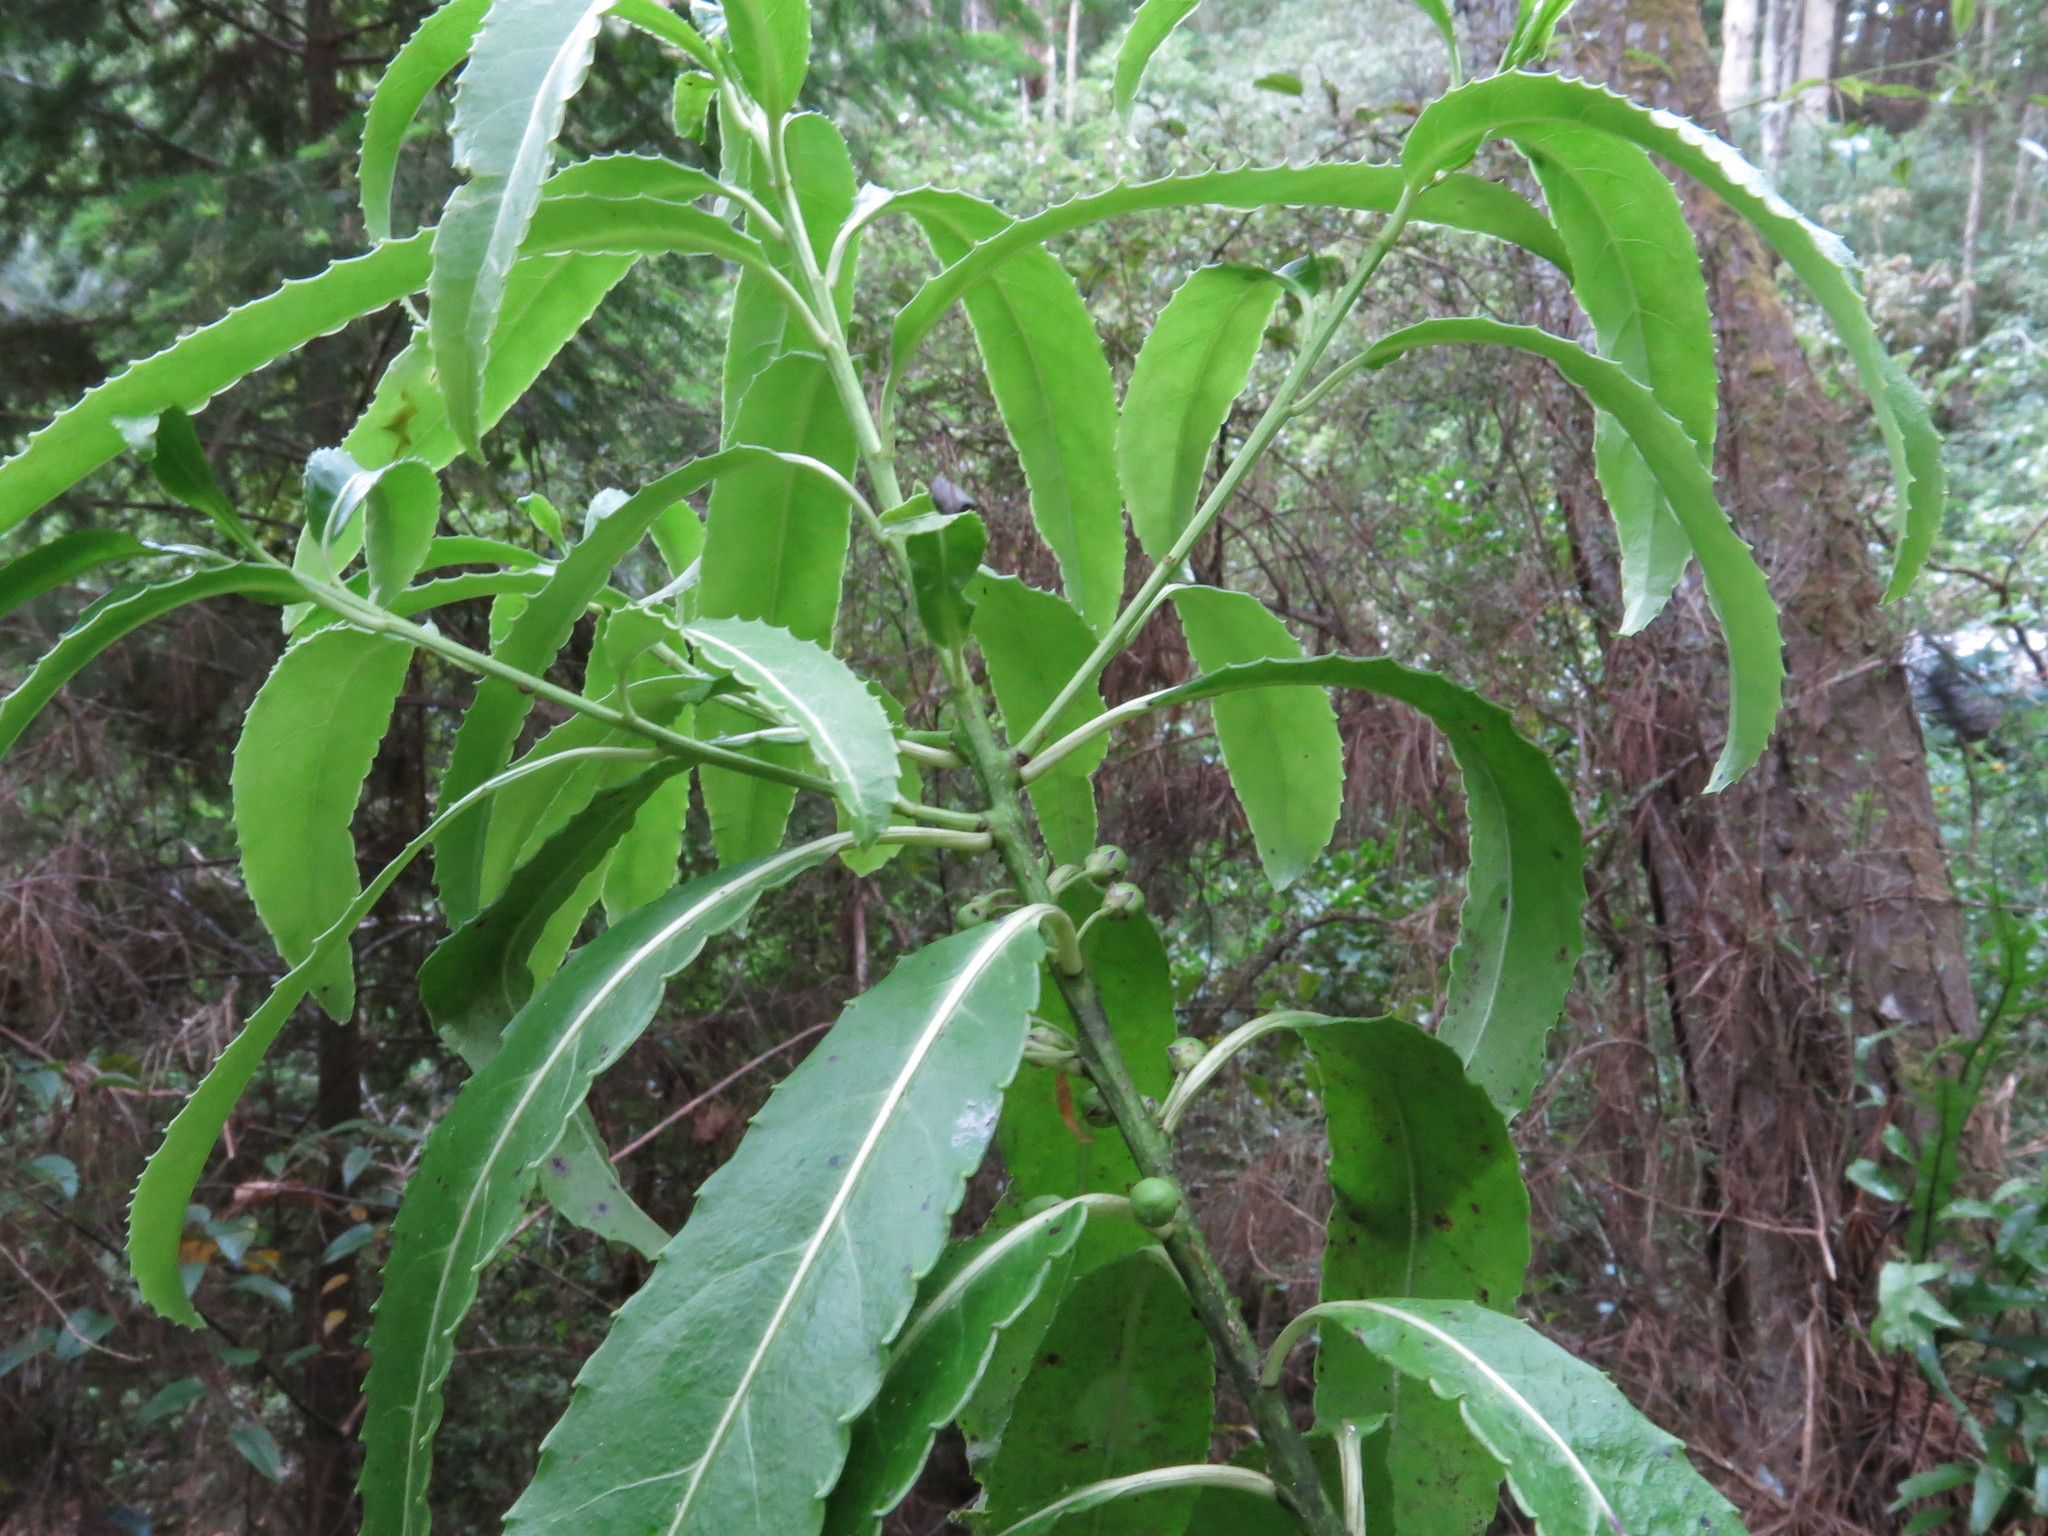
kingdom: Plantae
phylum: Tracheophyta
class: Magnoliopsida
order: Malpighiales
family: Violaceae
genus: Melicytus
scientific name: Melicytus lanceolatus
